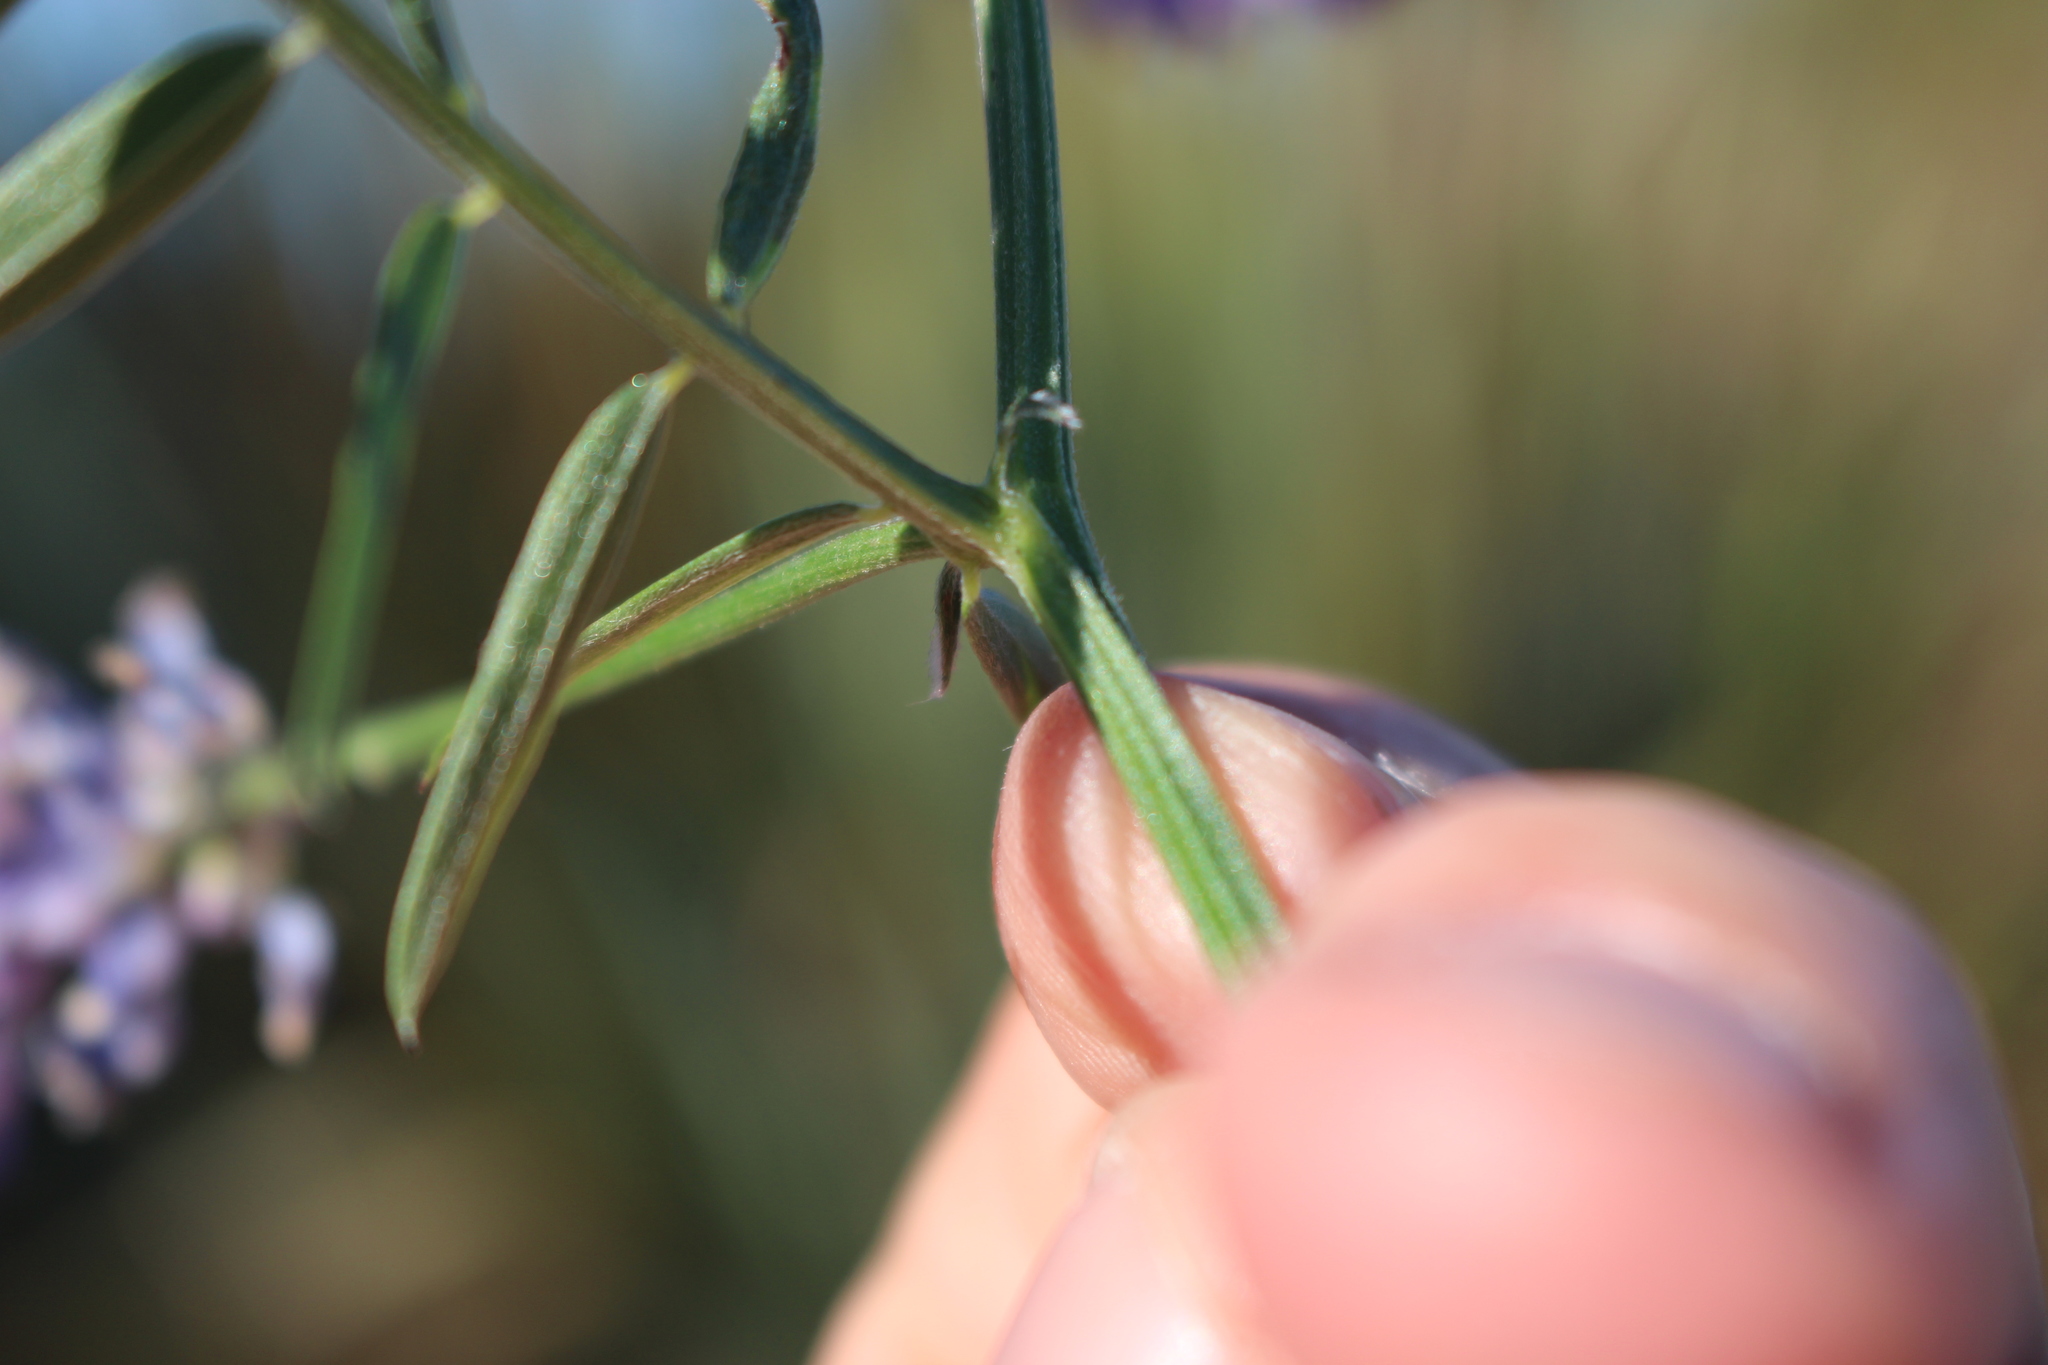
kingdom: Plantae
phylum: Tracheophyta
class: Magnoliopsida
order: Fabales
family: Fabaceae
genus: Vicia
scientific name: Vicia cracca
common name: Bird vetch
